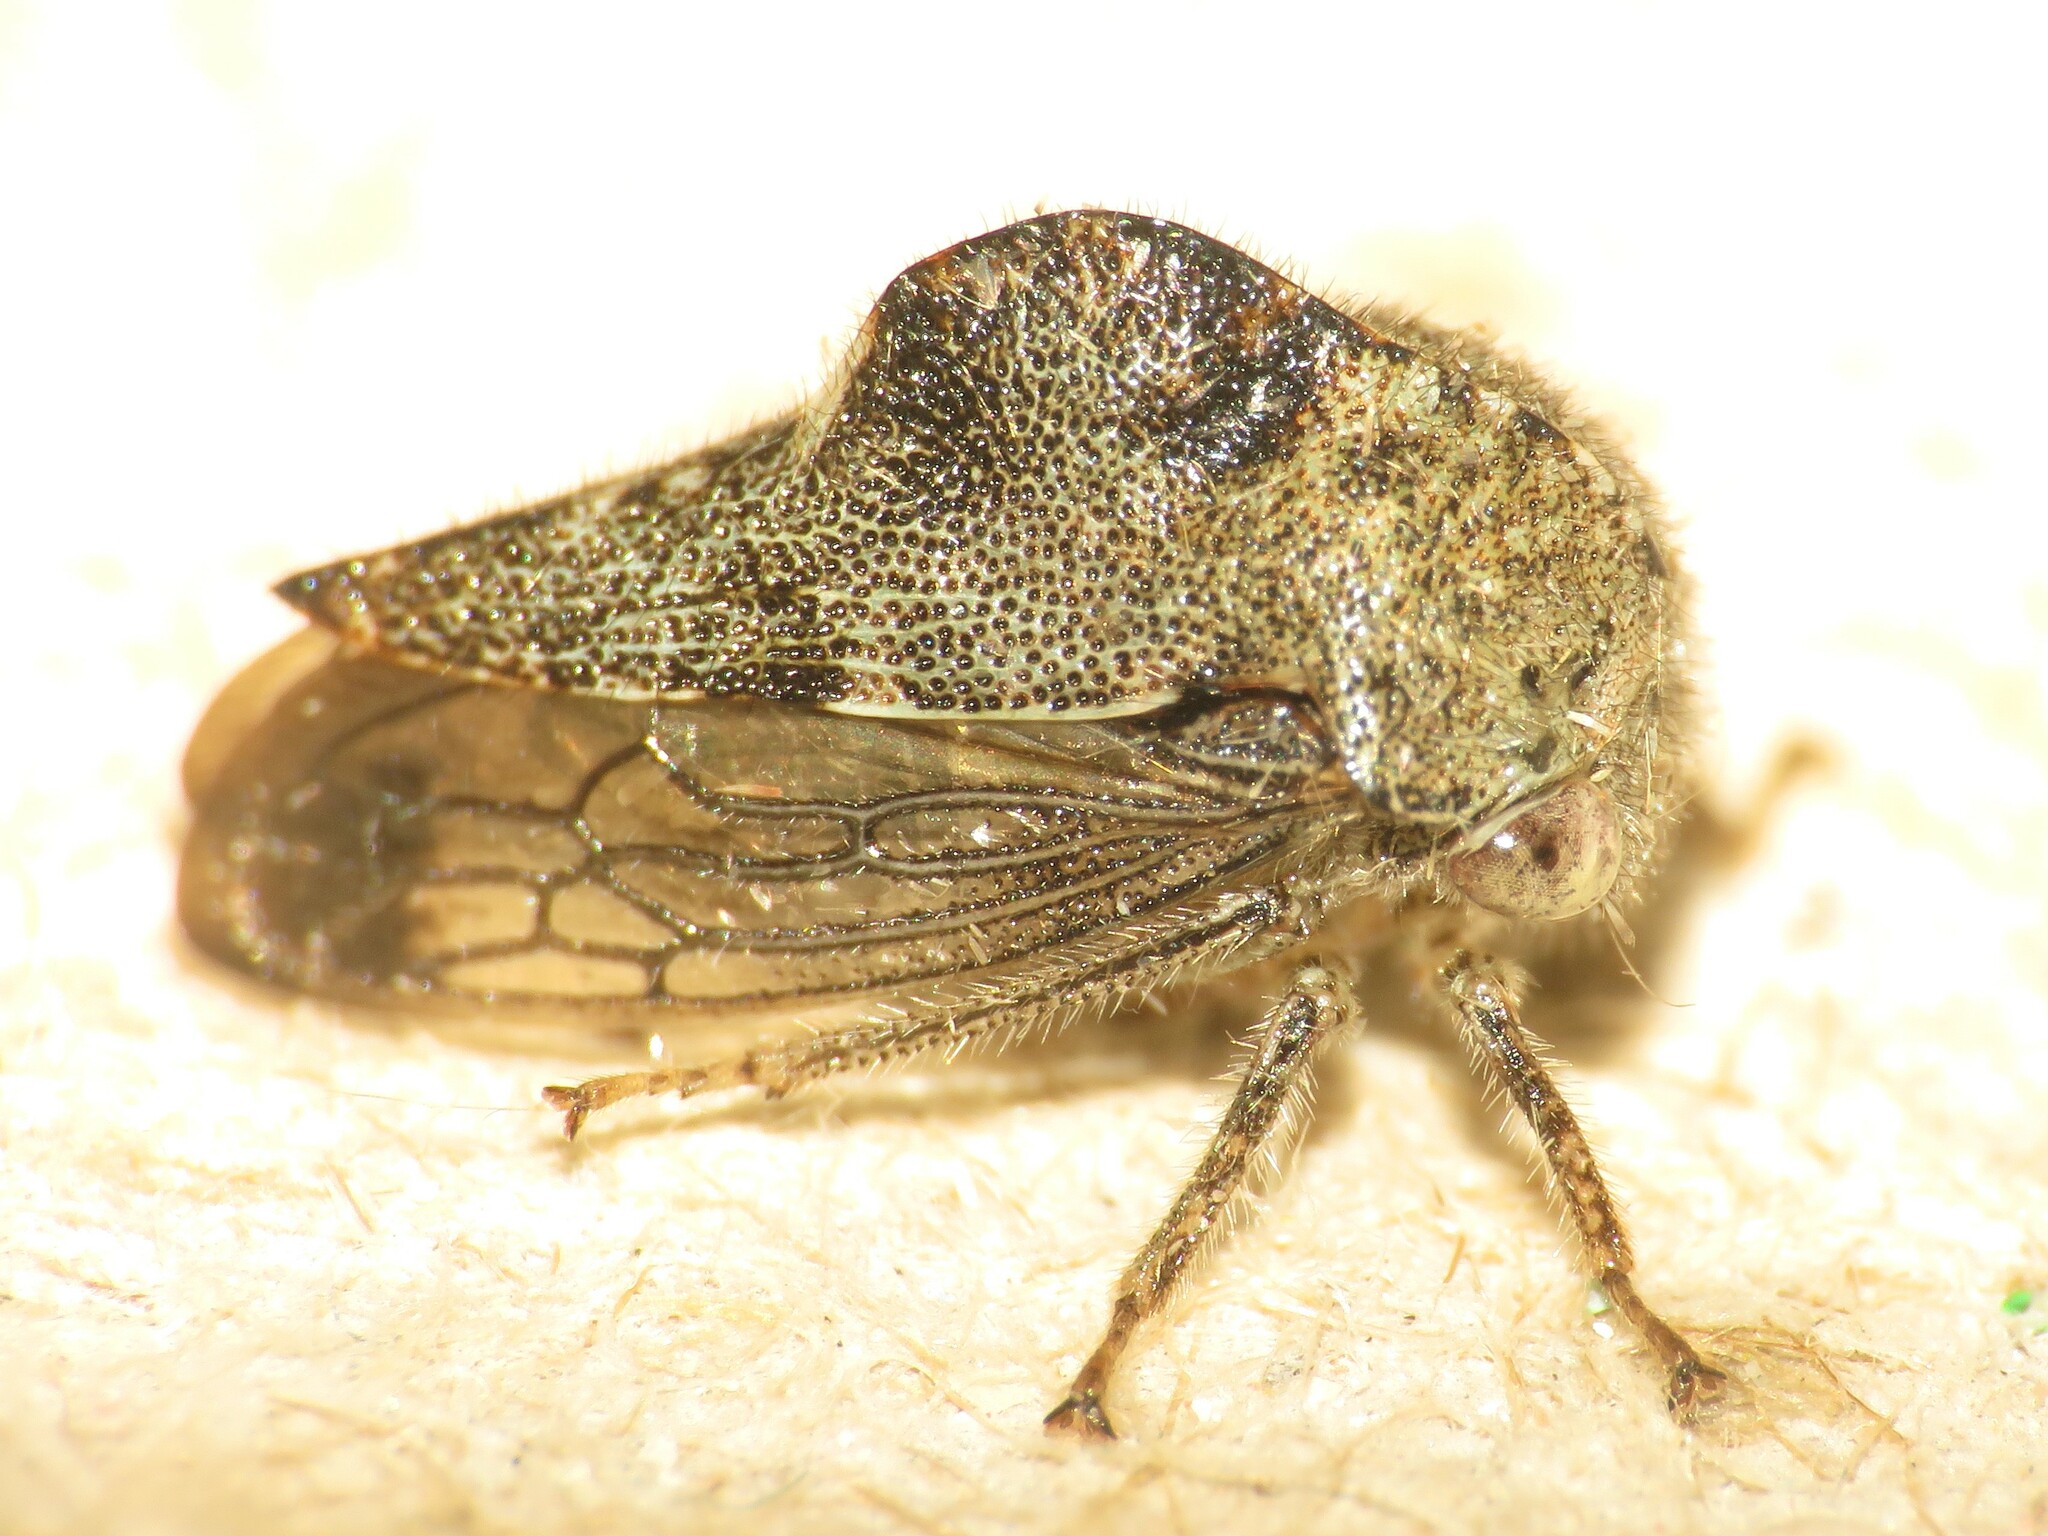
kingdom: Animalia
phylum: Arthropoda
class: Insecta
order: Hemiptera
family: Membracidae
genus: Telamona
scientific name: Telamona reclivata
